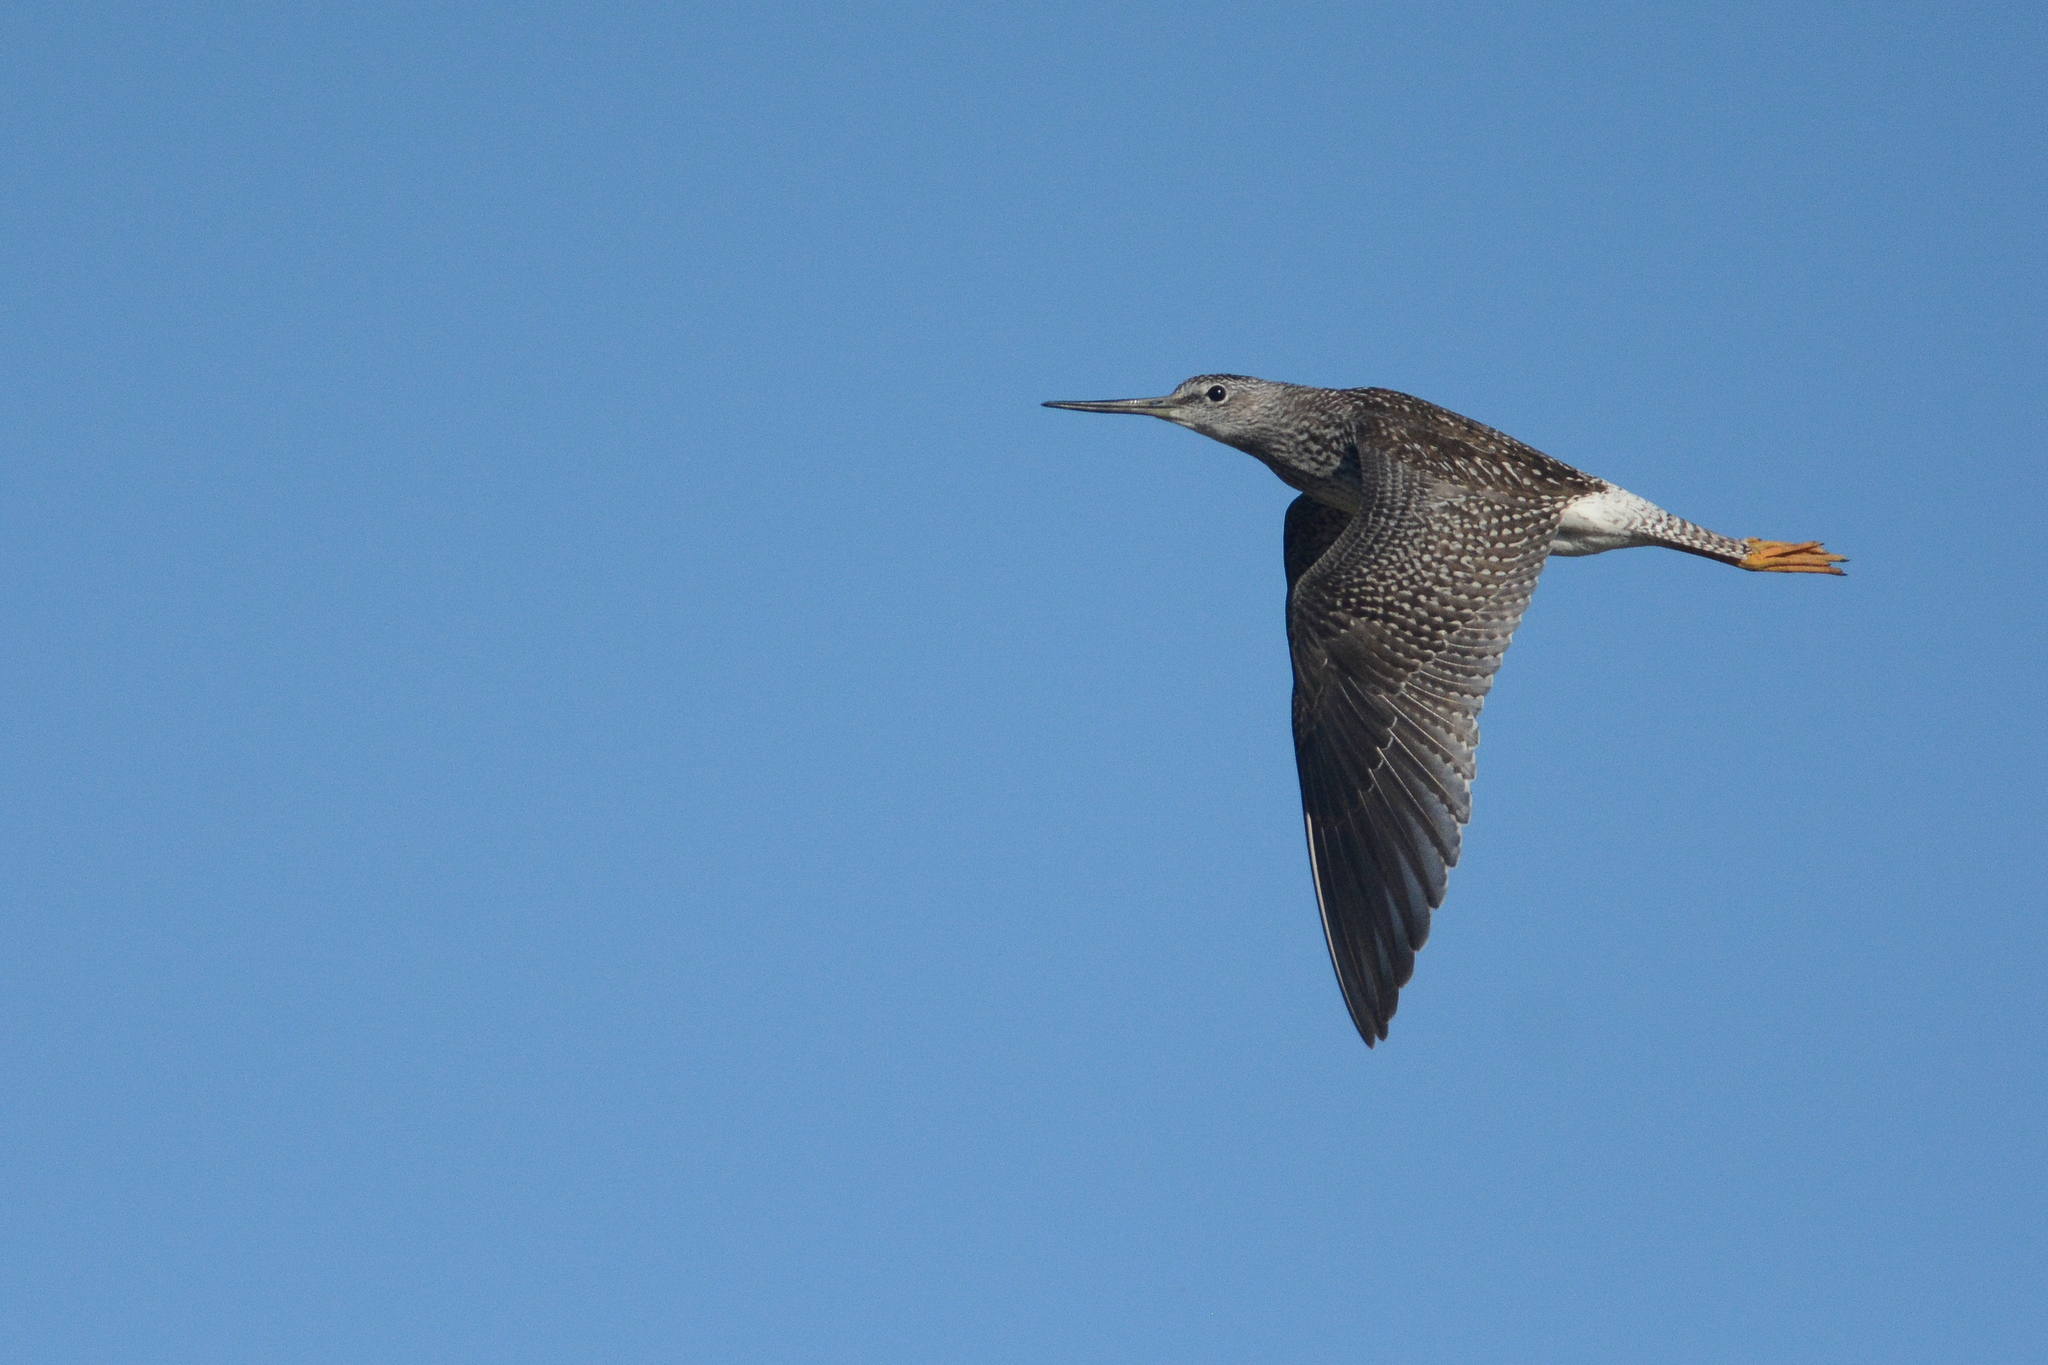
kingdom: Animalia
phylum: Chordata
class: Aves
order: Charadriiformes
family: Scolopacidae
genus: Tringa
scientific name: Tringa melanoleuca
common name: Greater yellowlegs
